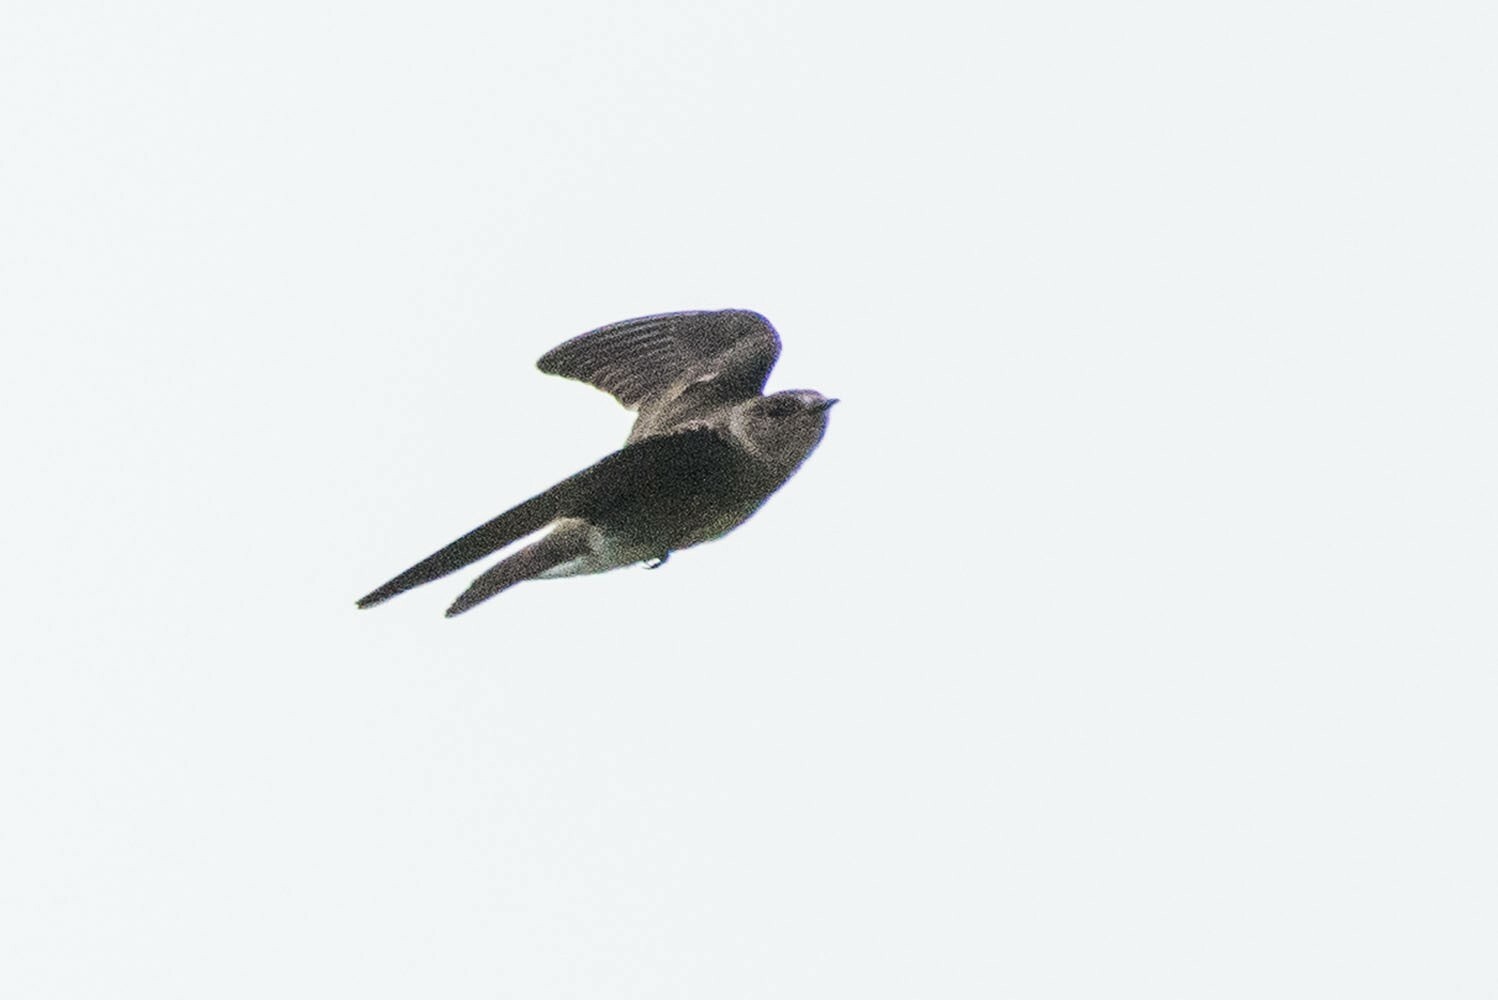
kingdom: Animalia
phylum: Chordata
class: Aves
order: Passeriformes
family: Hirundinidae
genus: Progne
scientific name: Progne subis
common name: Purple martin
